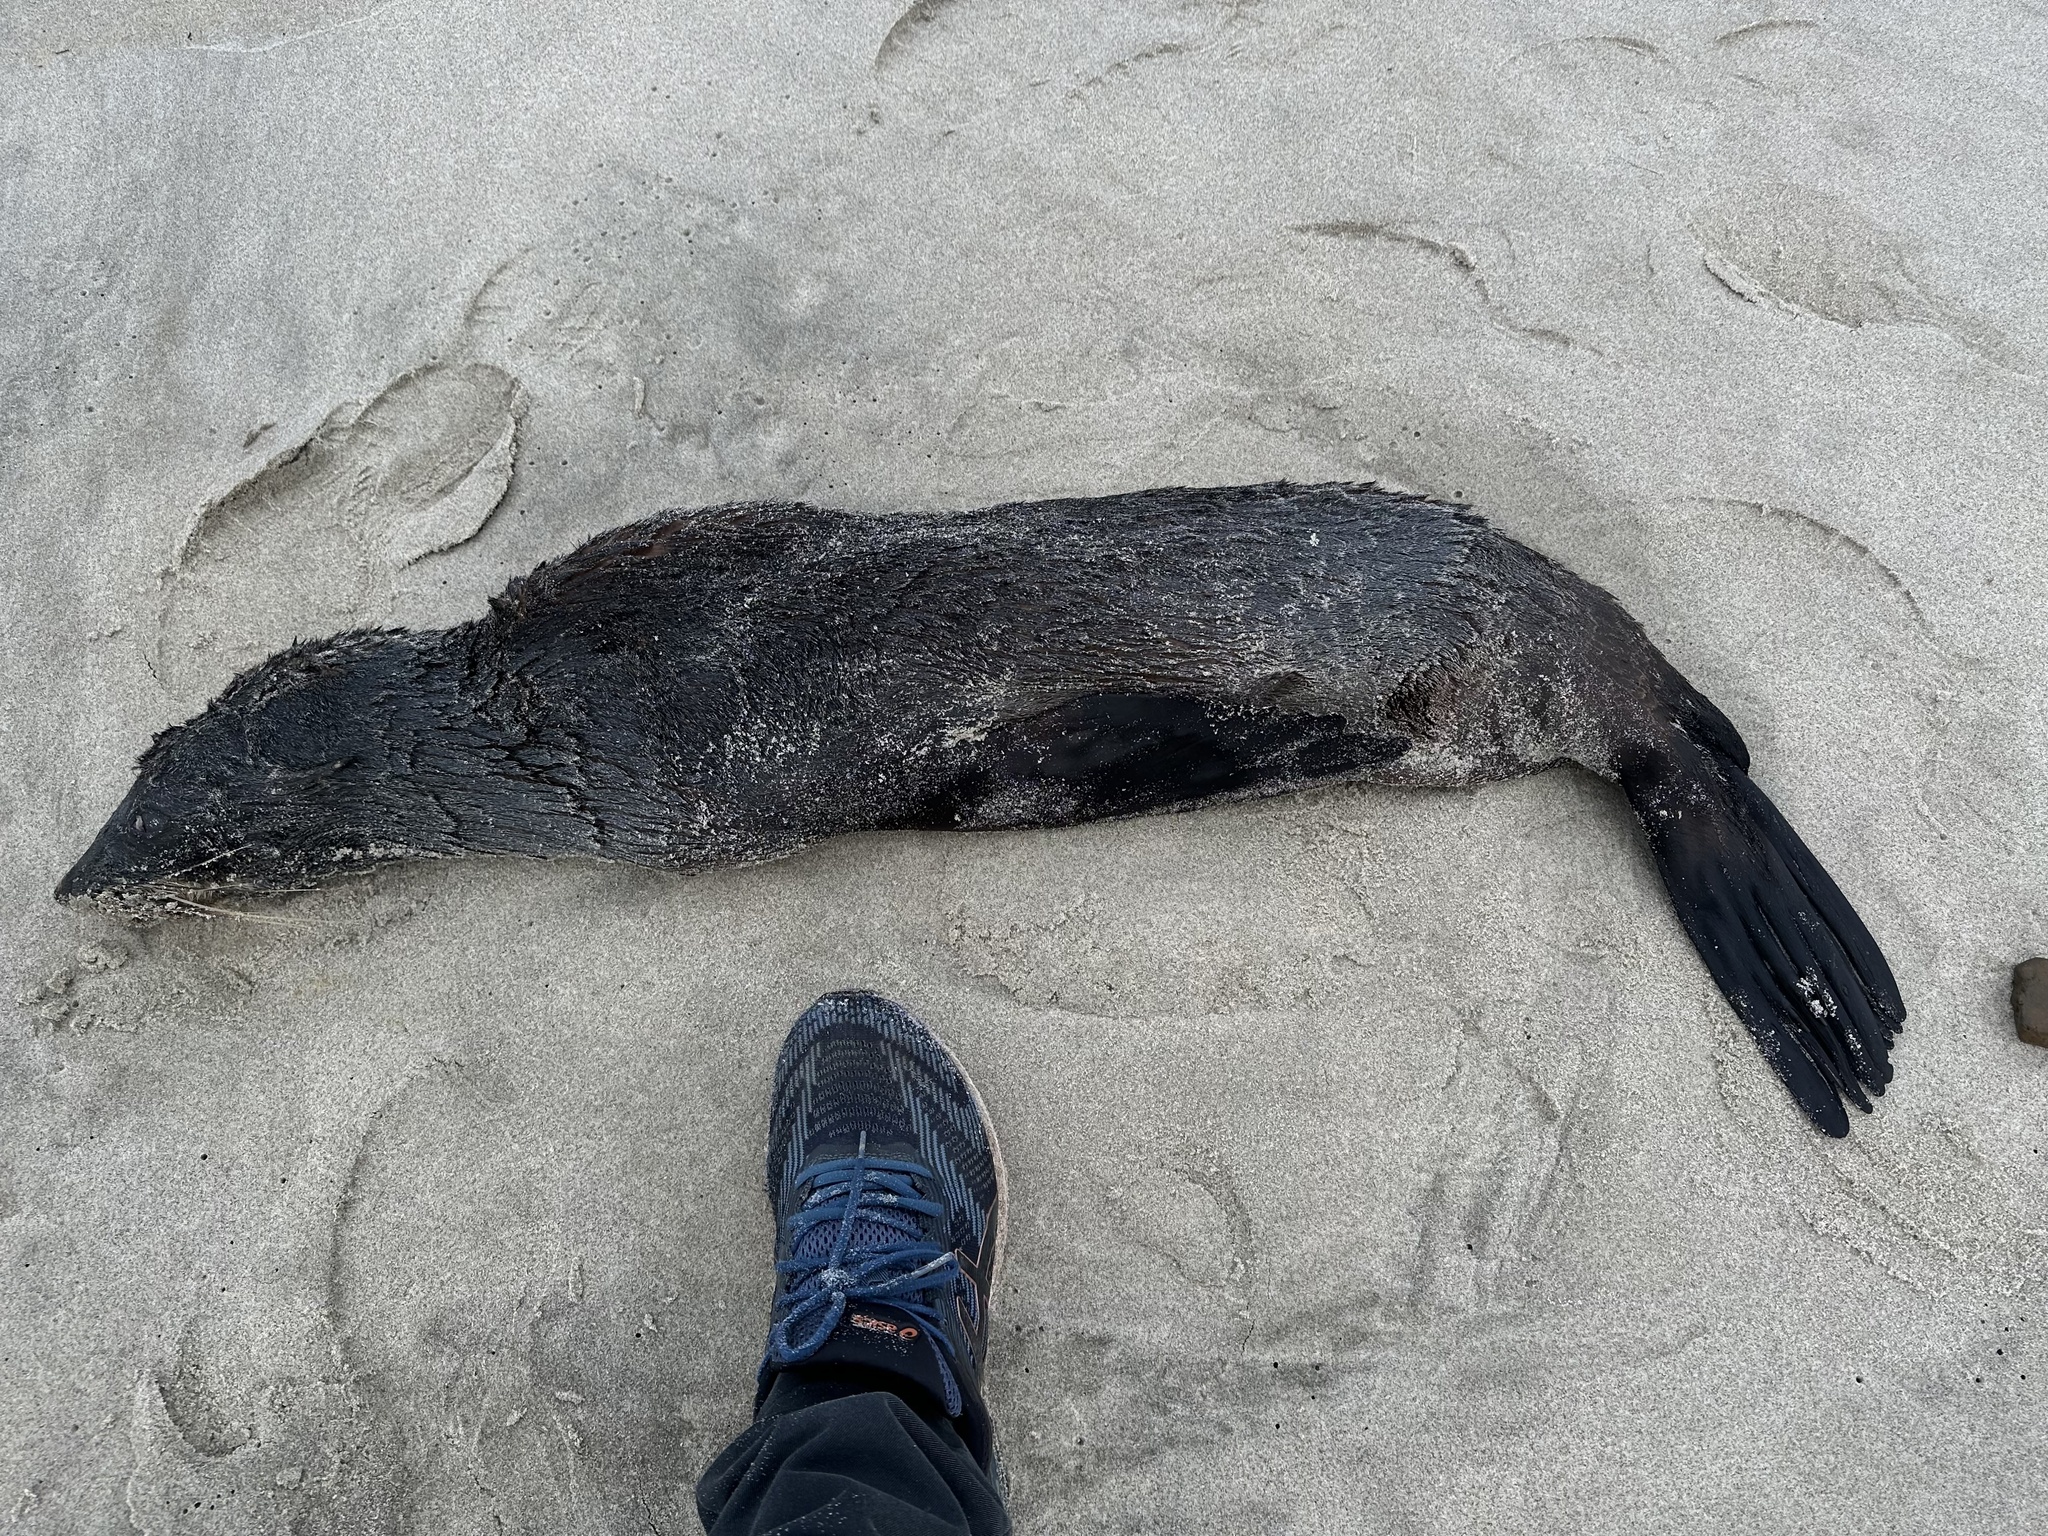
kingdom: Animalia
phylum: Chordata
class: Mammalia
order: Carnivora
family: Otariidae
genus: Arctocephalus
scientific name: Arctocephalus forsteri
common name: New zealand fur seal
